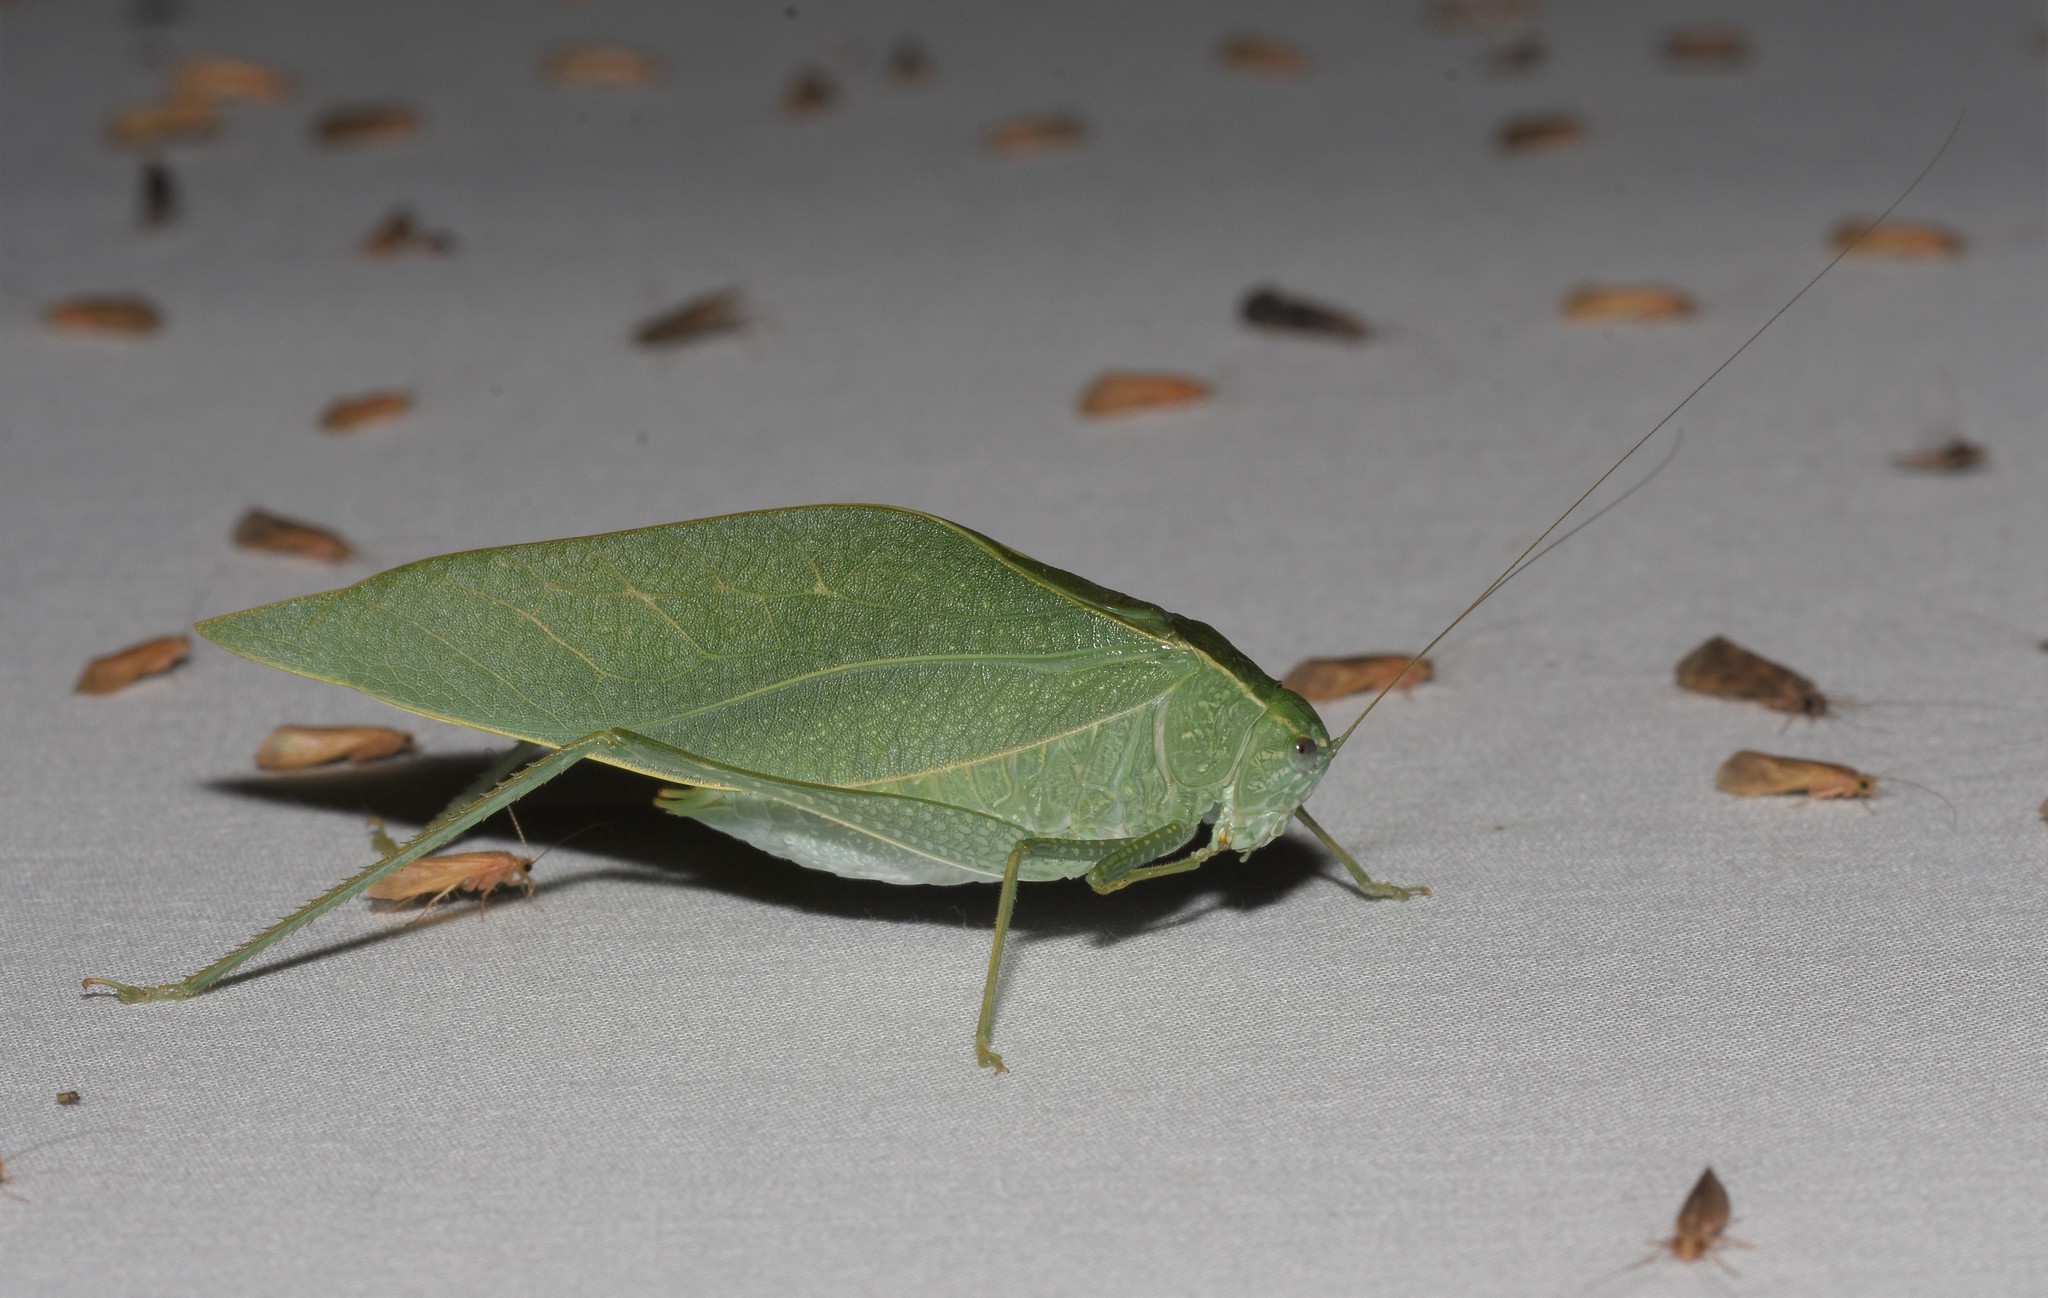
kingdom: Animalia
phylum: Arthropoda
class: Insecta
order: Orthoptera
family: Tettigoniidae
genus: Microcentrum
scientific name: Microcentrum rhombifolium
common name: Broad-winged katydid
